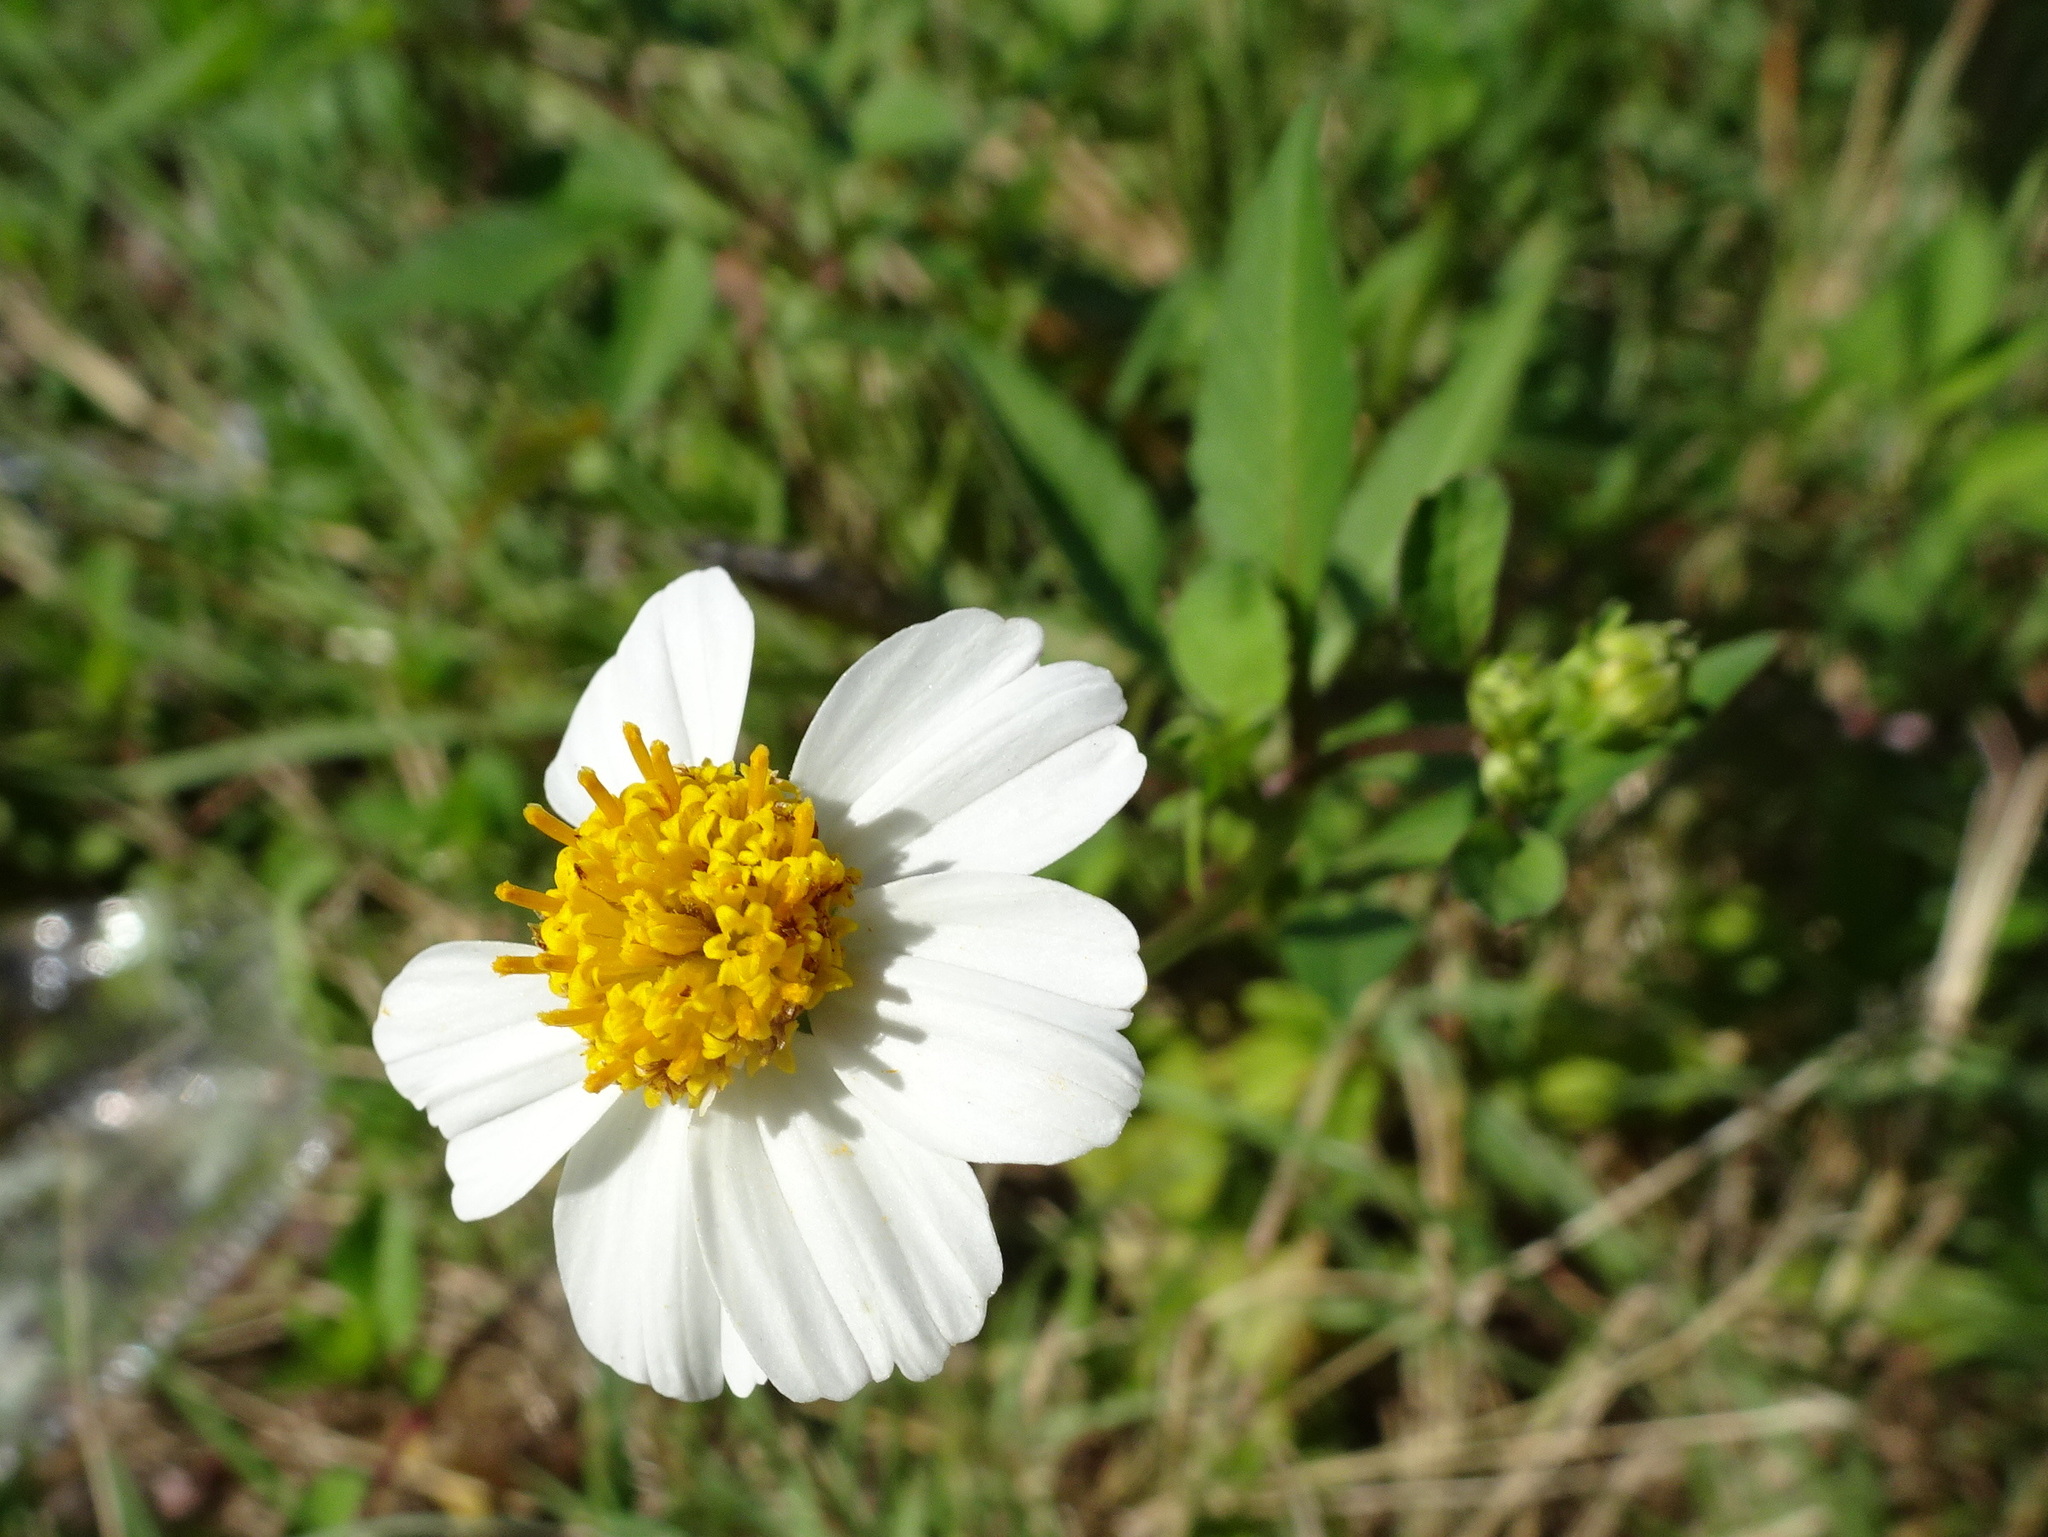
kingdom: Plantae
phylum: Tracheophyta
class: Magnoliopsida
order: Asterales
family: Asteraceae
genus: Bidens
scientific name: Bidens alba
